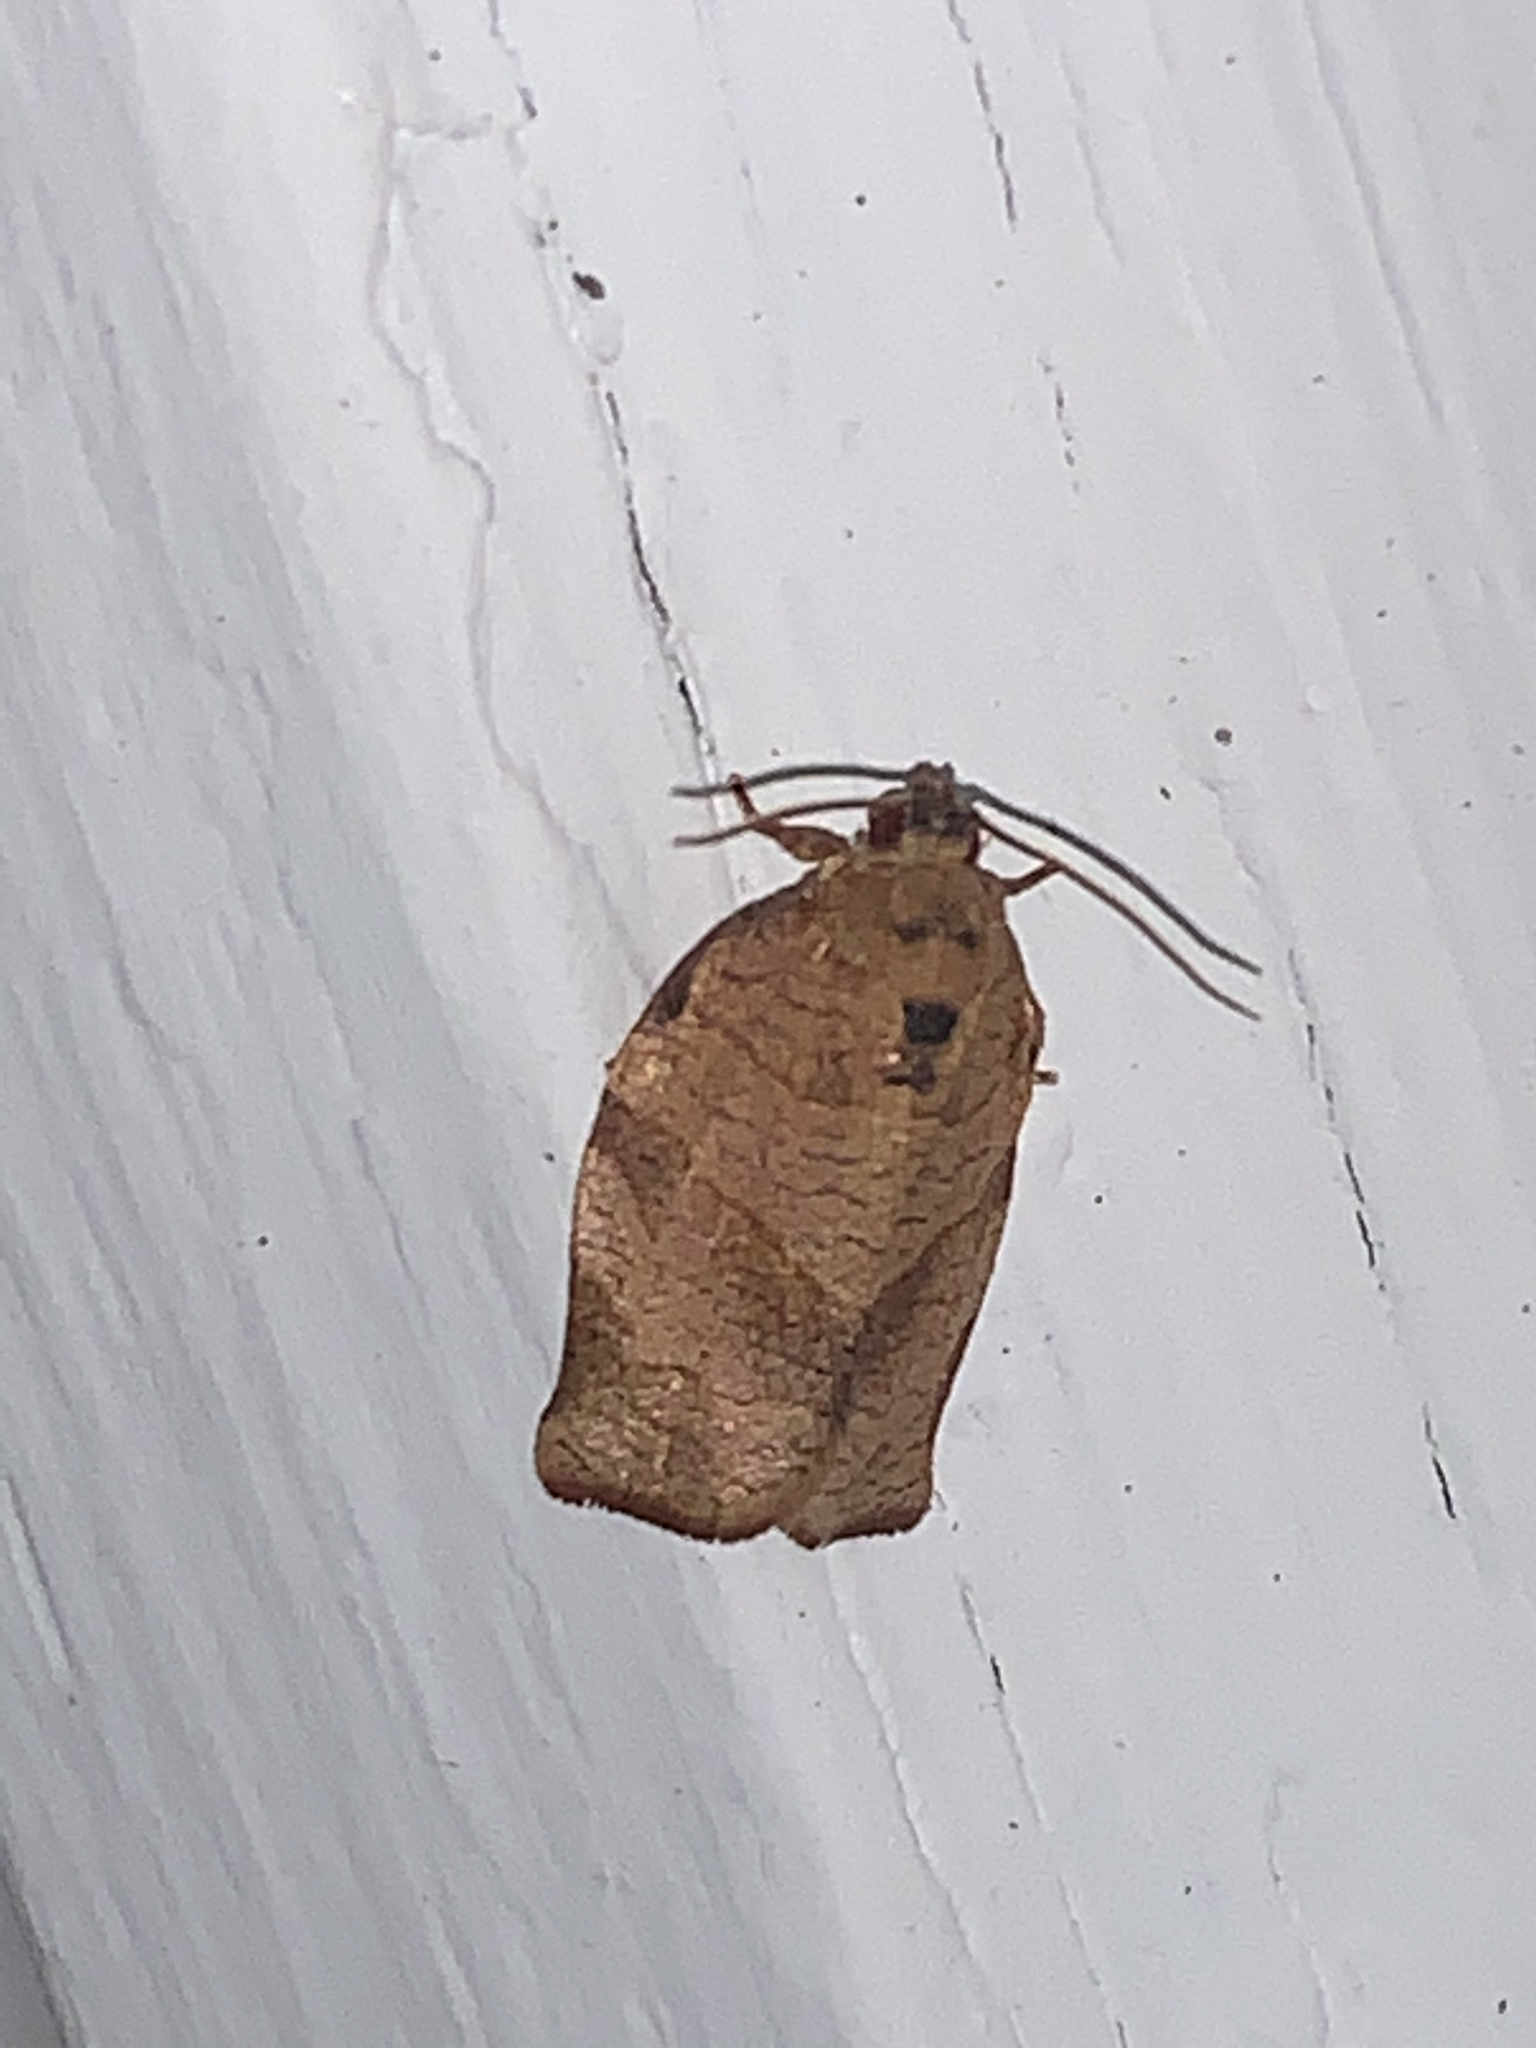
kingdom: Animalia
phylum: Arthropoda
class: Insecta
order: Lepidoptera
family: Tortricidae
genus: Choristoneura
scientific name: Choristoneura rosaceana
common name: Oblique-banded leafroller moth
